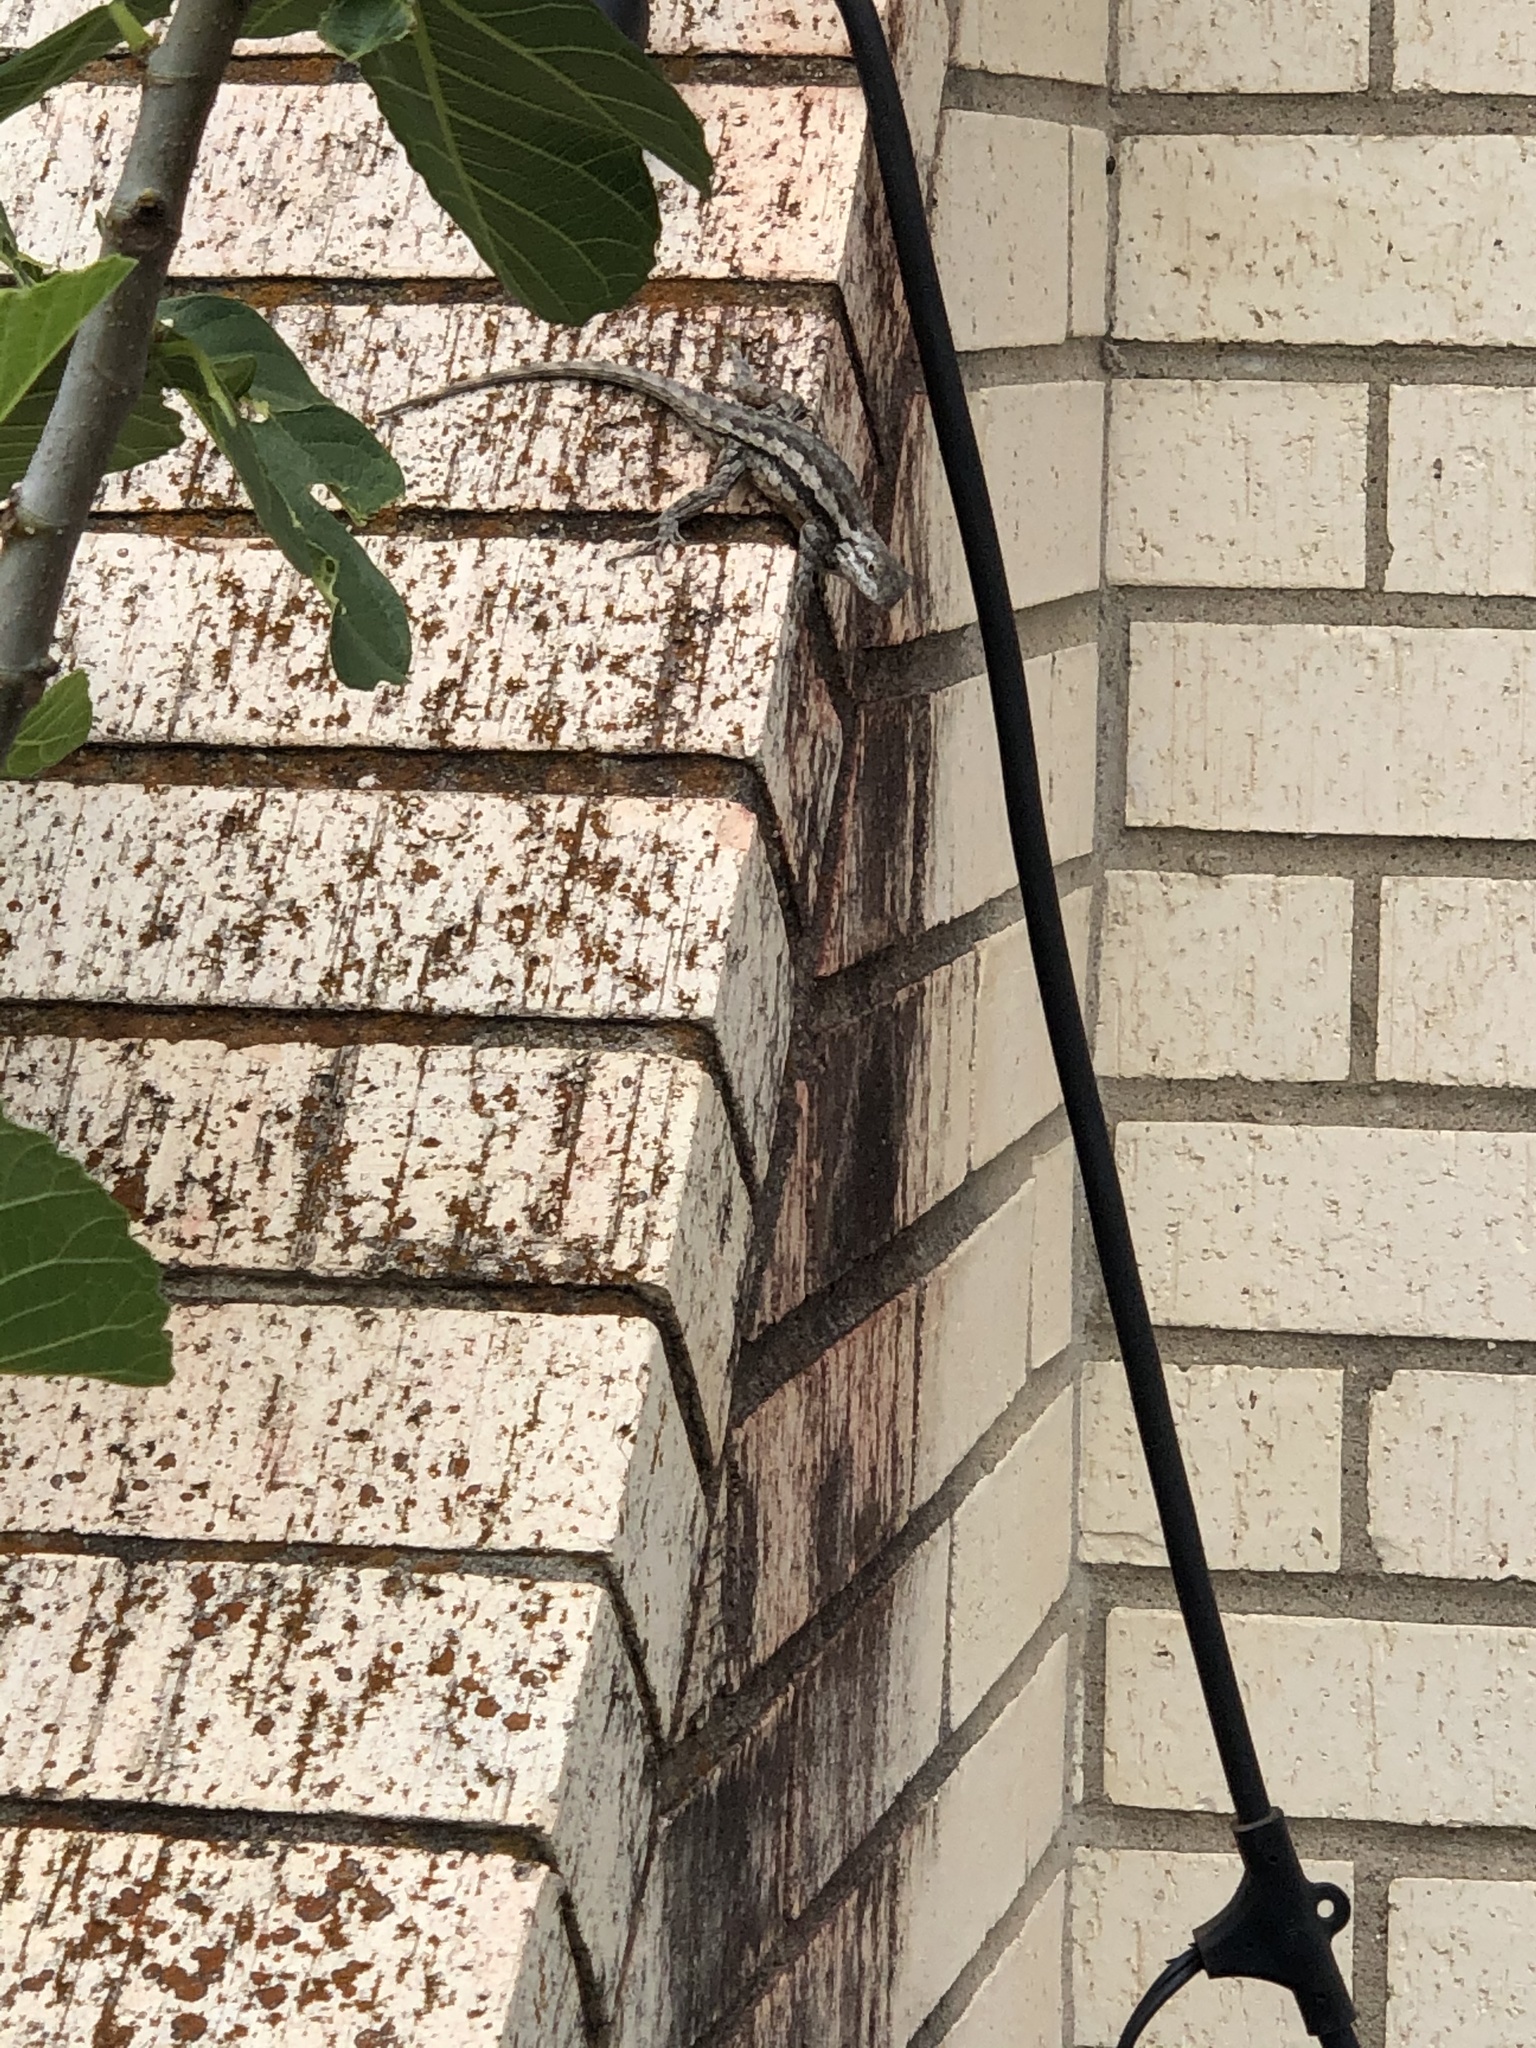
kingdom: Animalia
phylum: Chordata
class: Squamata
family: Phrynosomatidae
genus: Sceloporus
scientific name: Sceloporus olivaceus
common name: Texas spiny lizard
